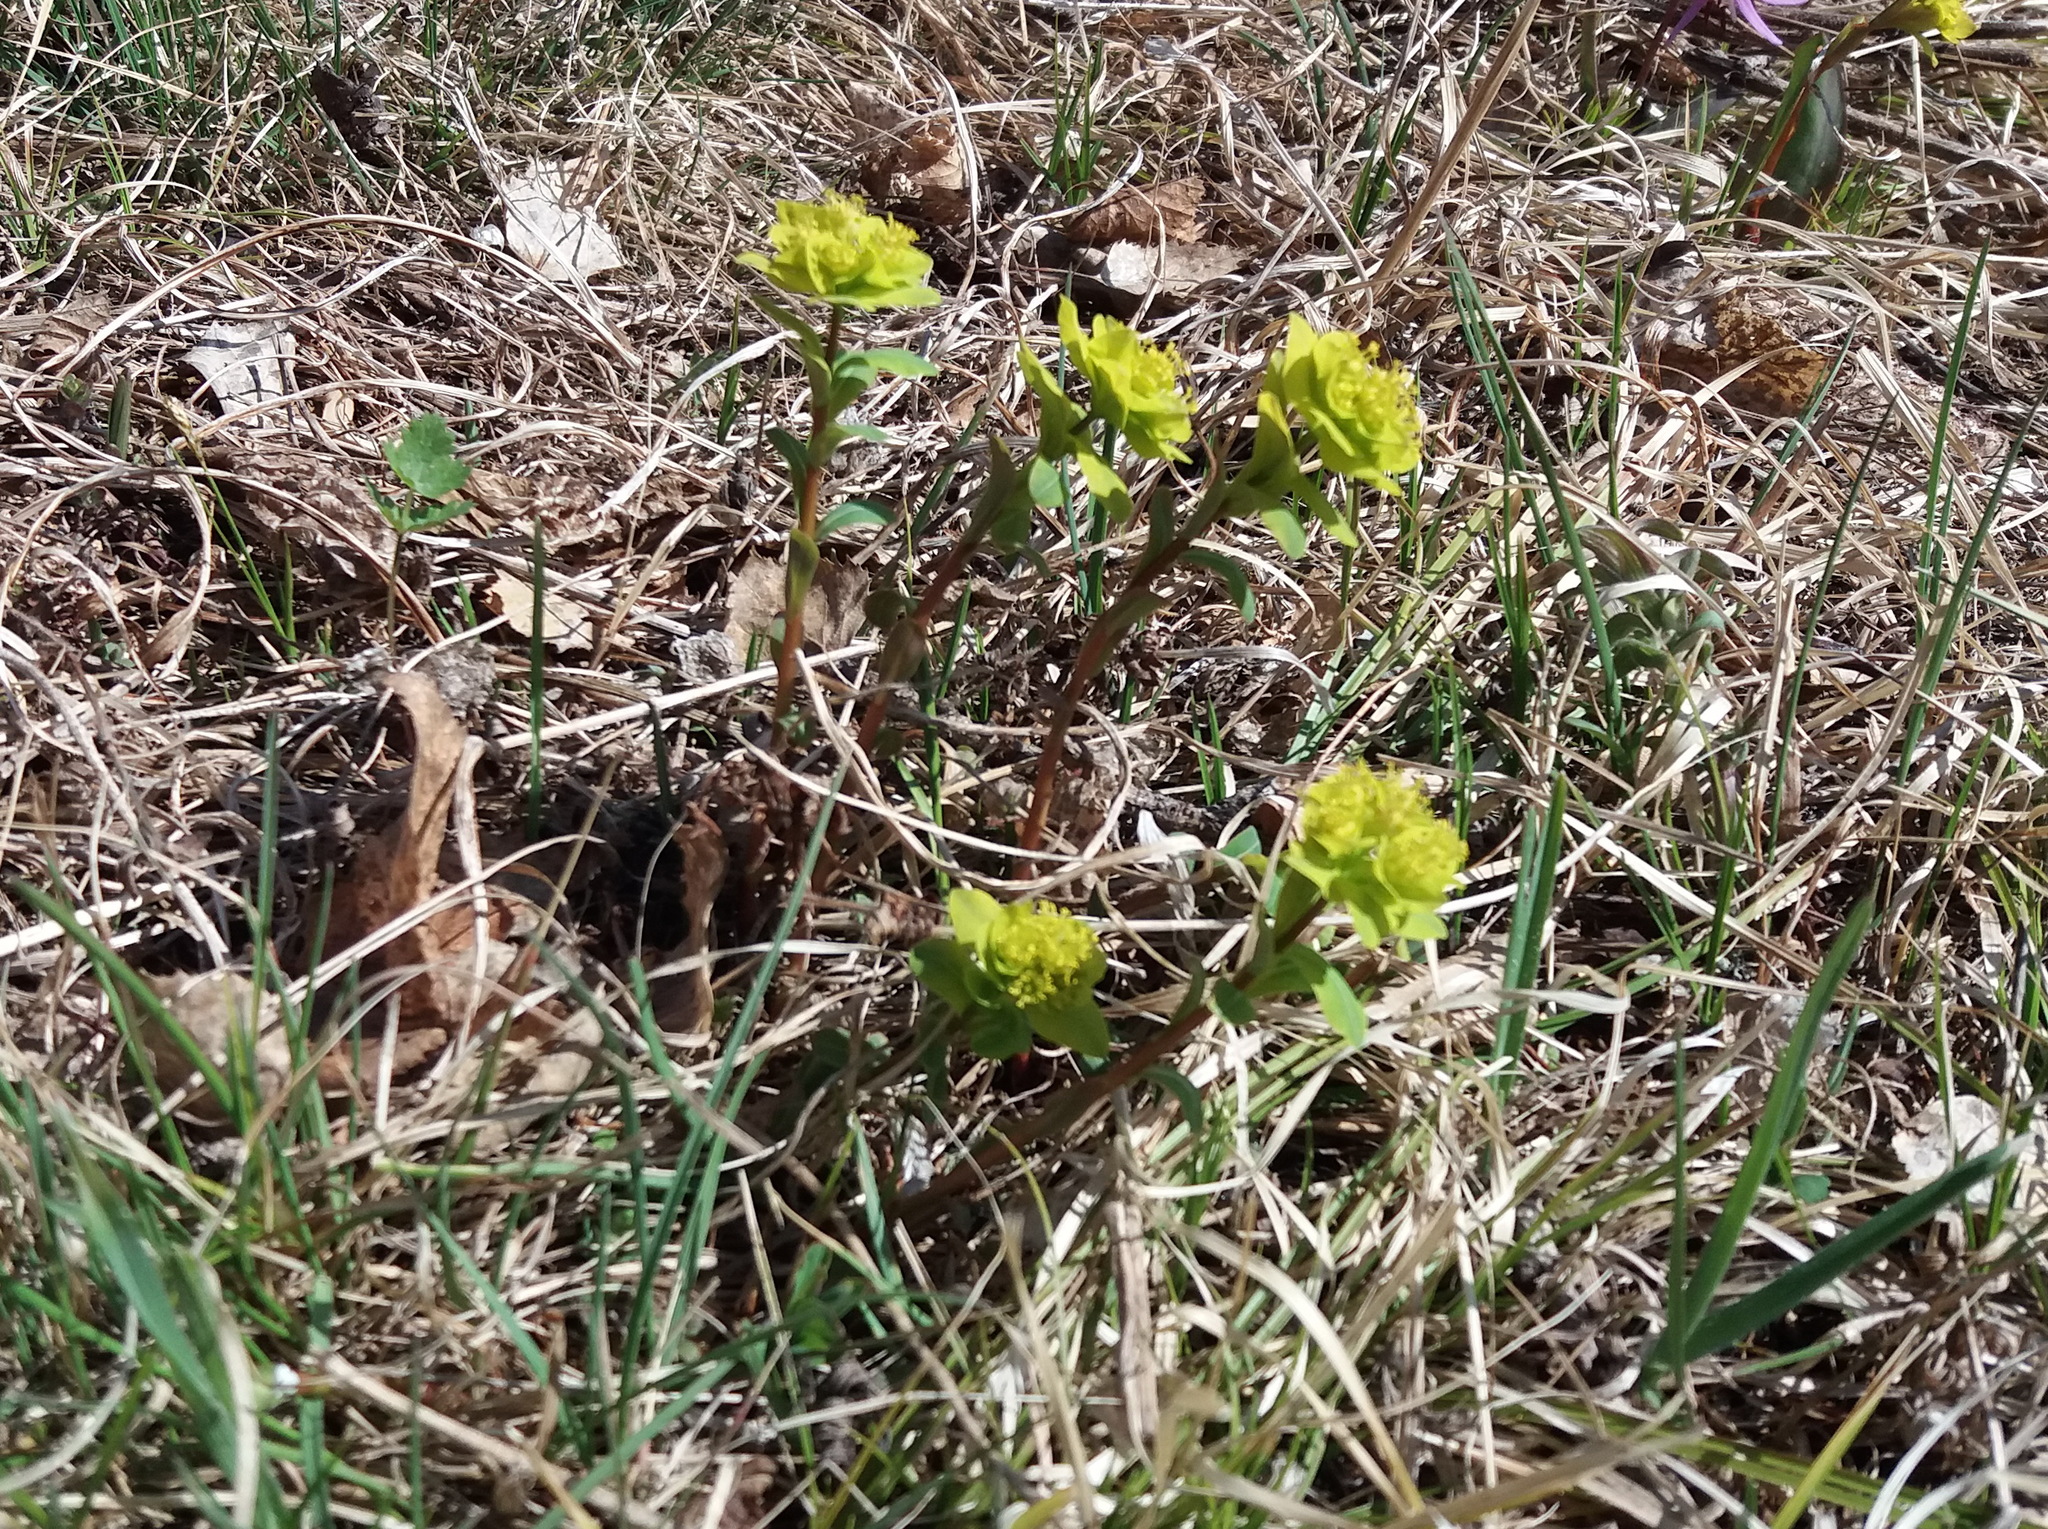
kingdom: Plantae
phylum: Tracheophyta
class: Magnoliopsida
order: Malpighiales
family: Euphorbiaceae
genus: Euphorbia
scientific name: Euphorbia altaica
